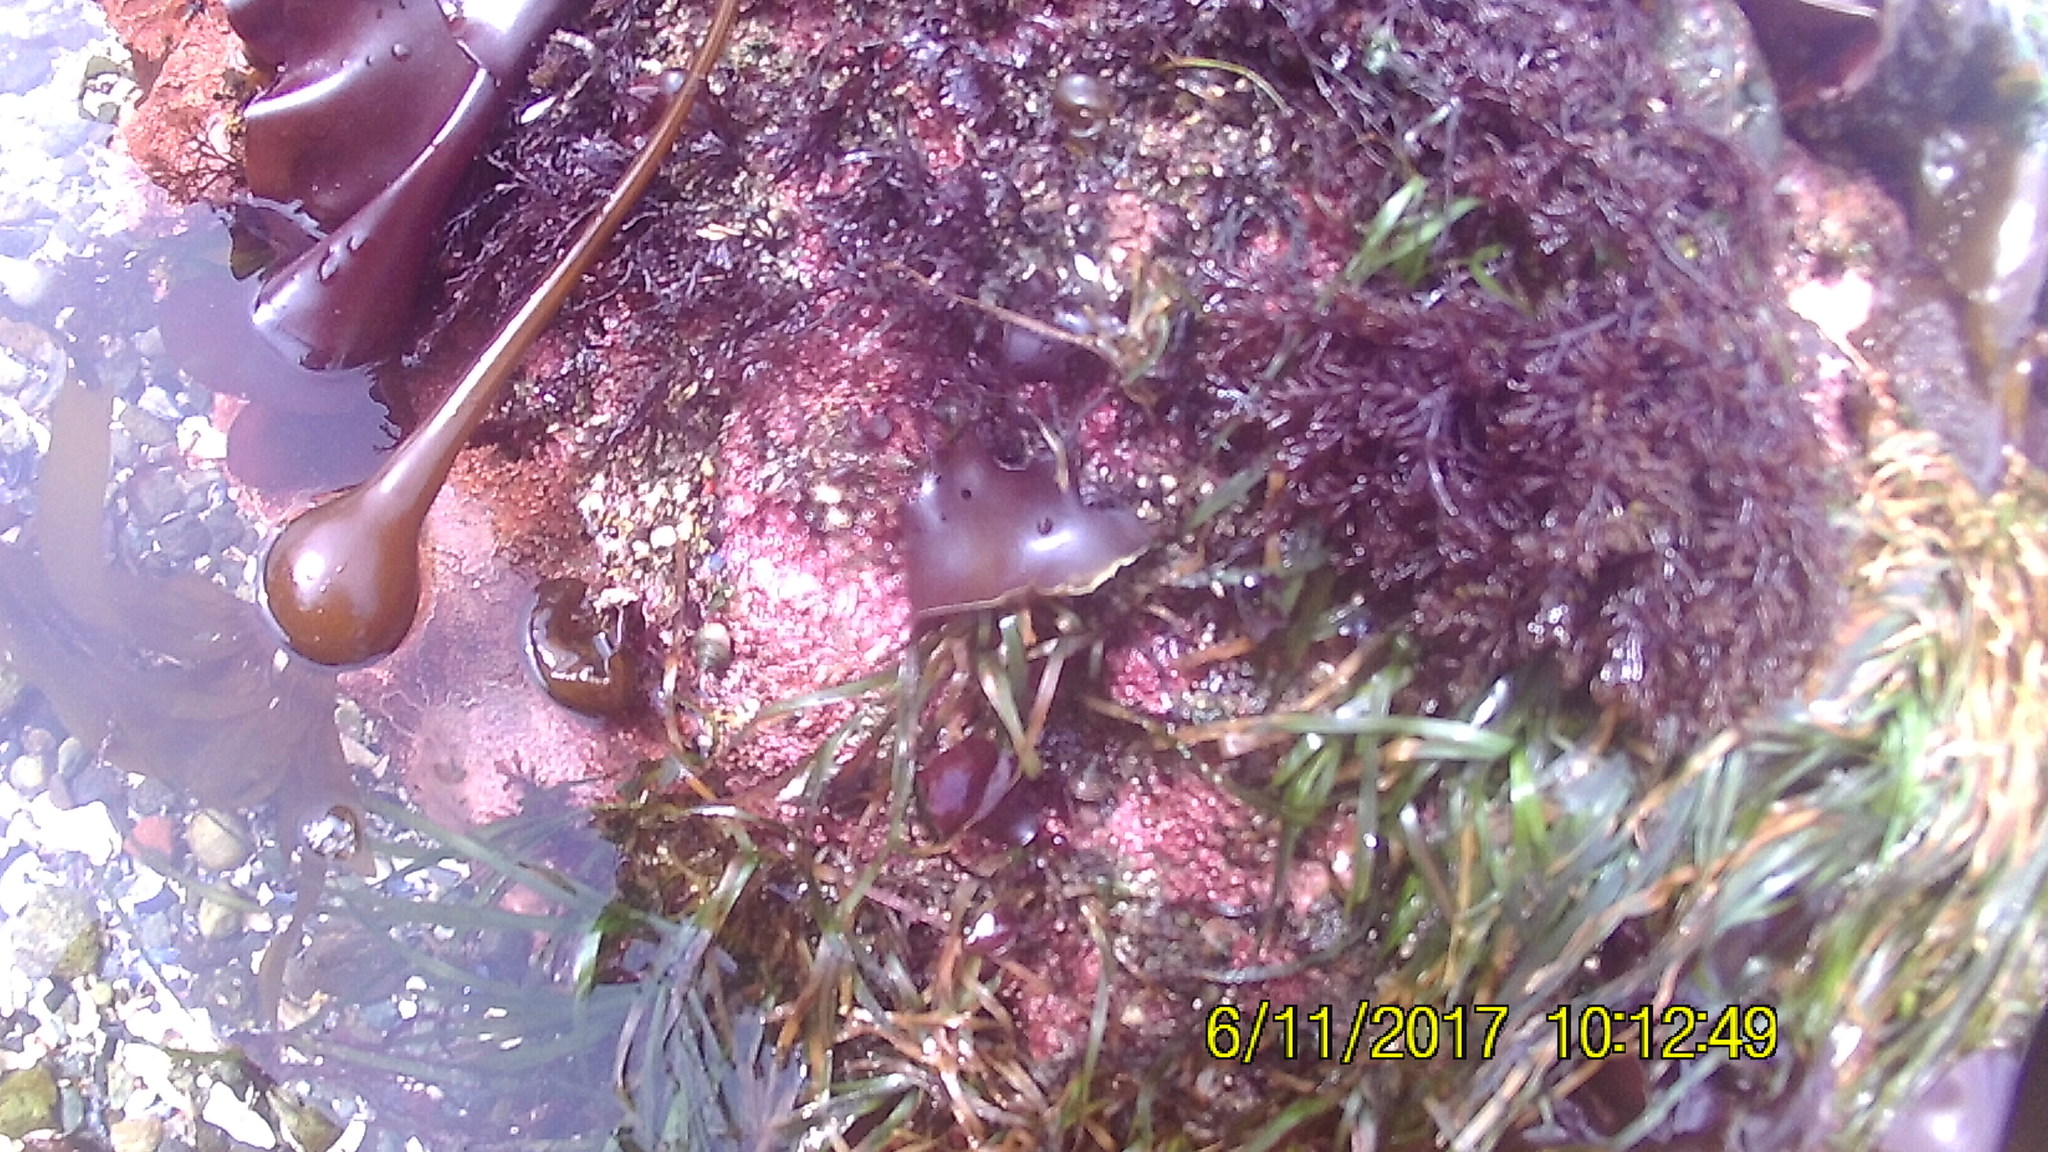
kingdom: Chromista
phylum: Ochrophyta
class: Phaeophyceae
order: Laminariales
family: Laminariaceae
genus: Nereocystis
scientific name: Nereocystis luetkeana
